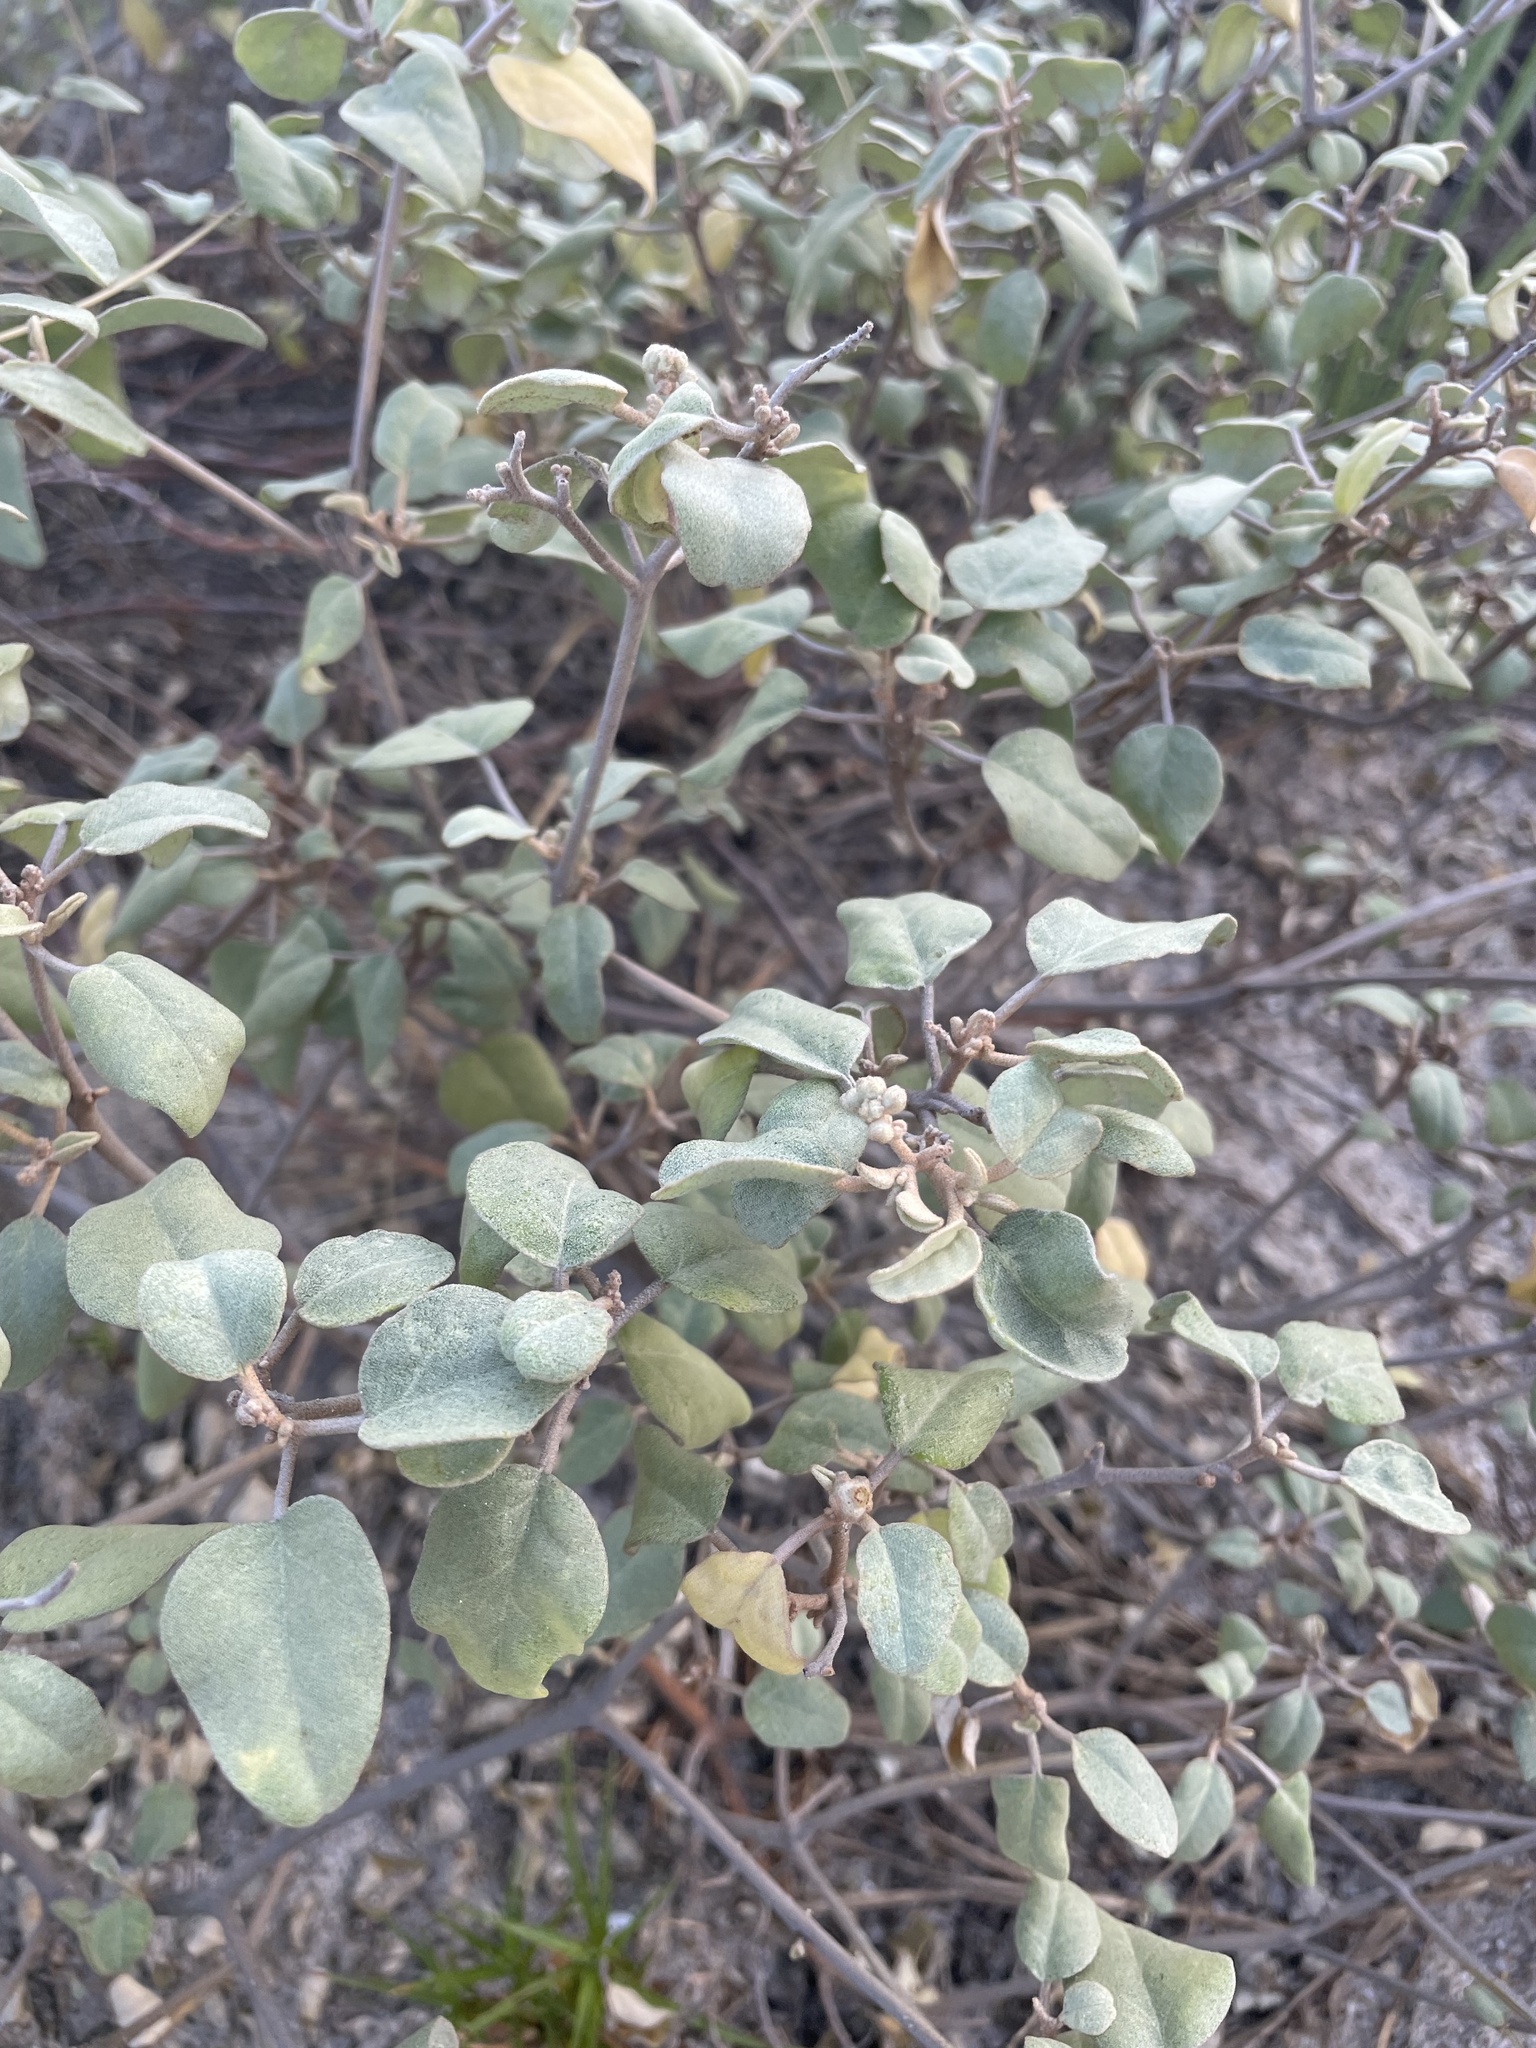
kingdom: Plantae
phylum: Tracheophyta
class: Magnoliopsida
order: Malpighiales
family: Euphorbiaceae
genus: Croton
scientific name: Croton punctatus
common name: Beach-tea
